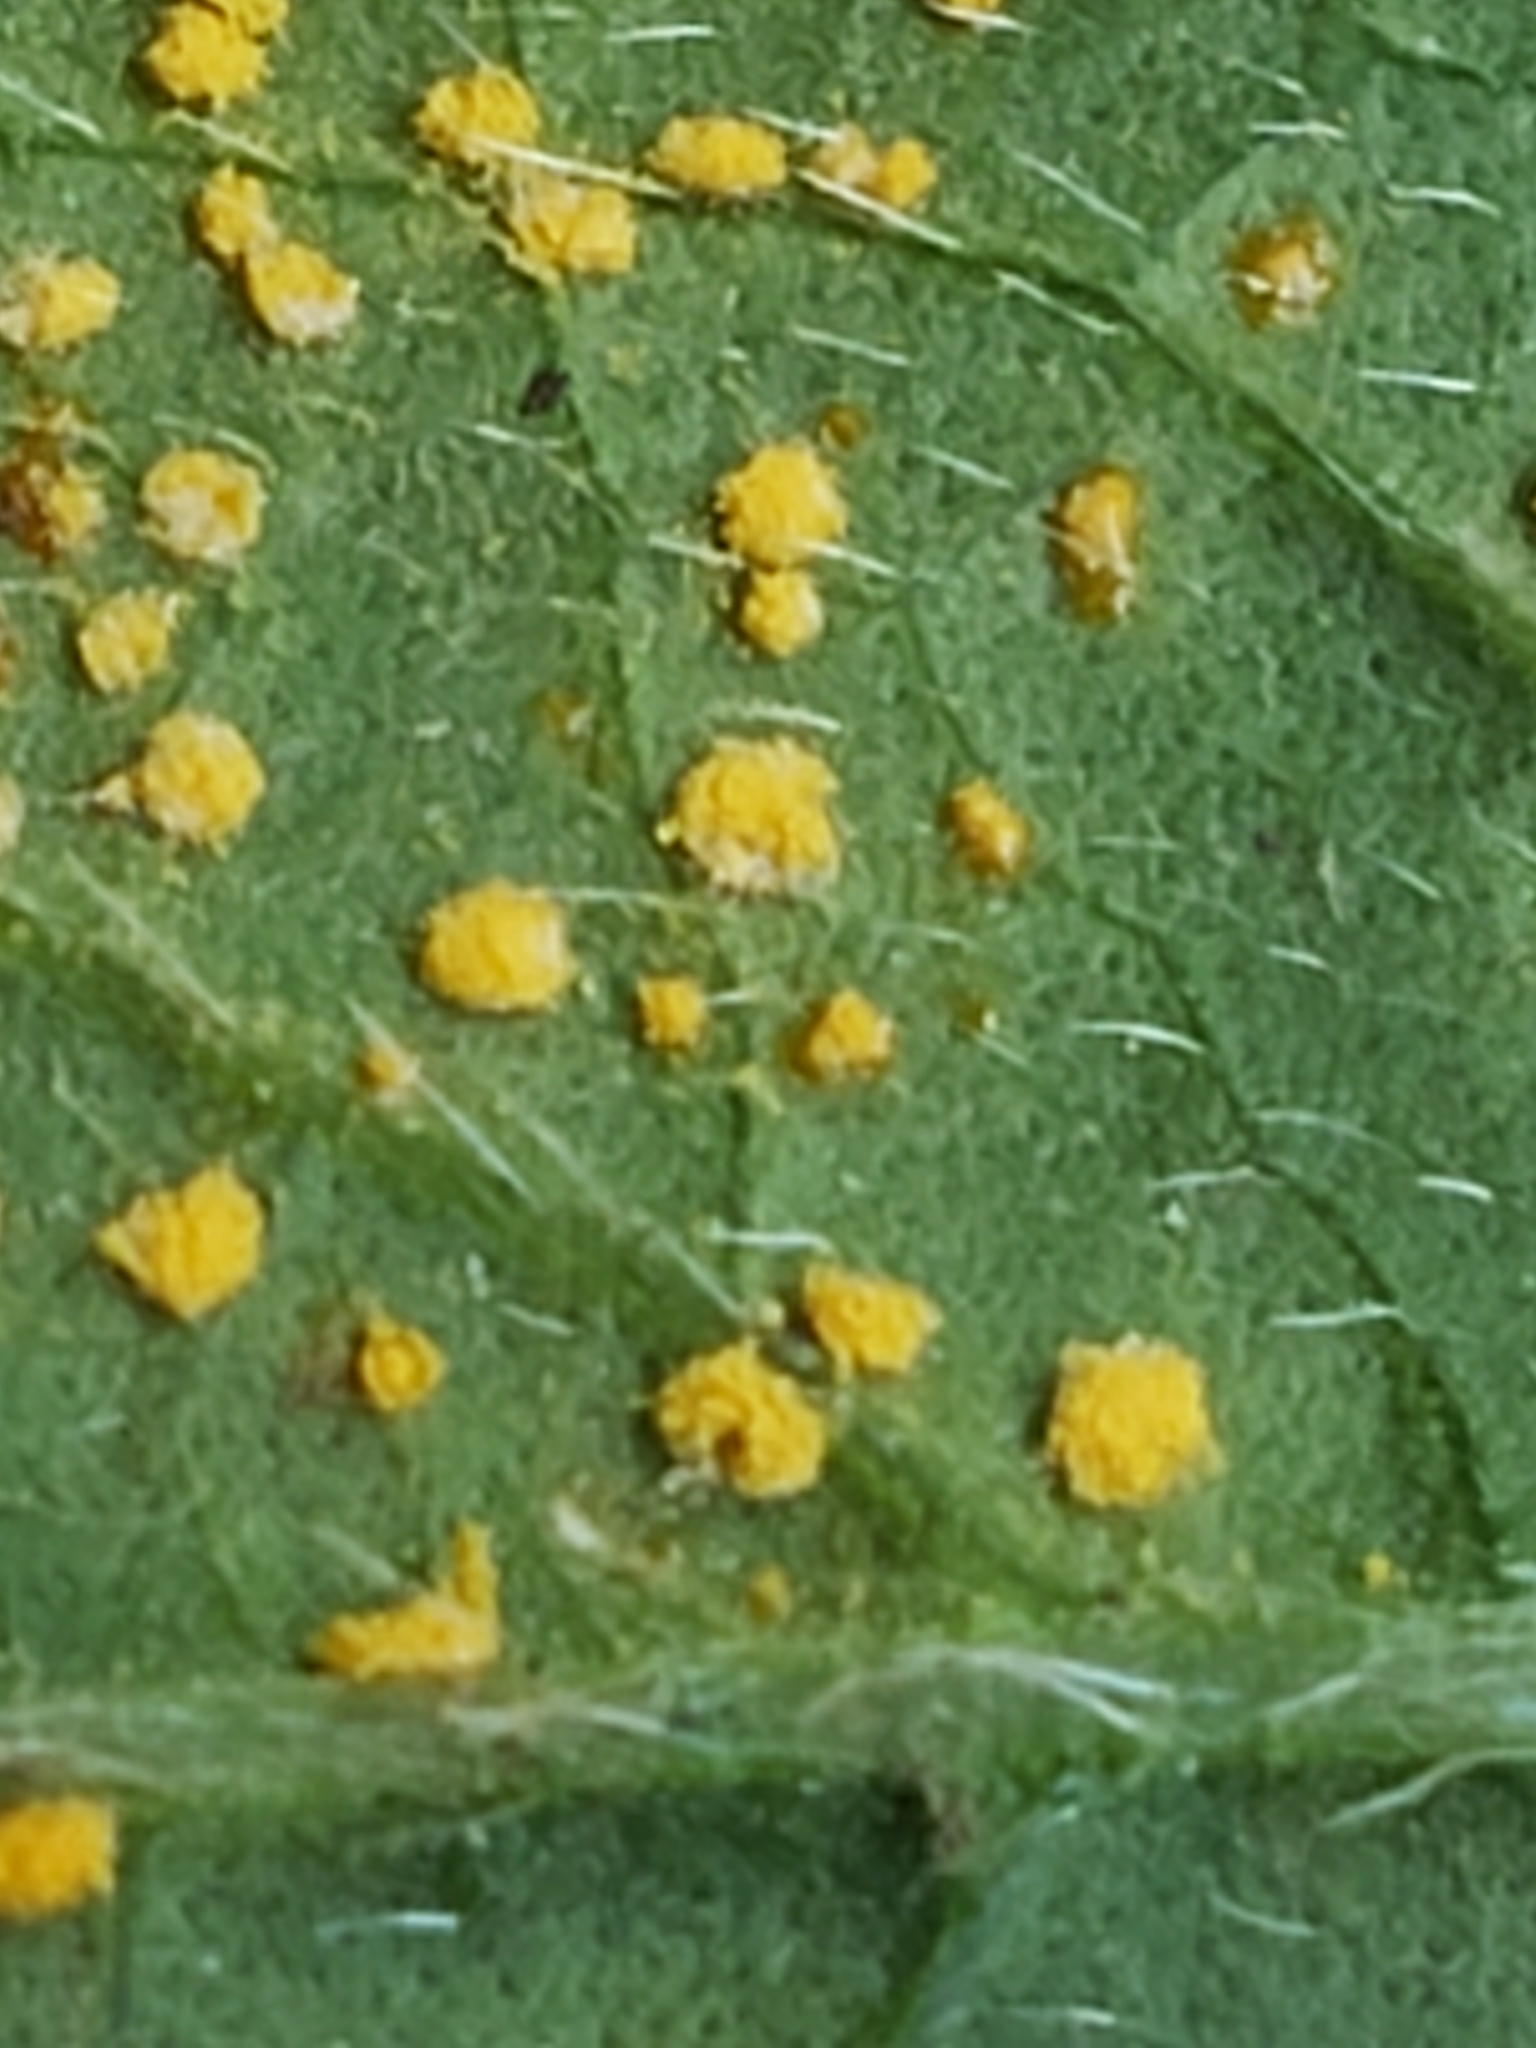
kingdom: Plantae
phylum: Tracheophyta
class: Magnoliopsida
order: Asterales
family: Asteraceae
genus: Elephantopus
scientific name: Elephantopus carolinianus
